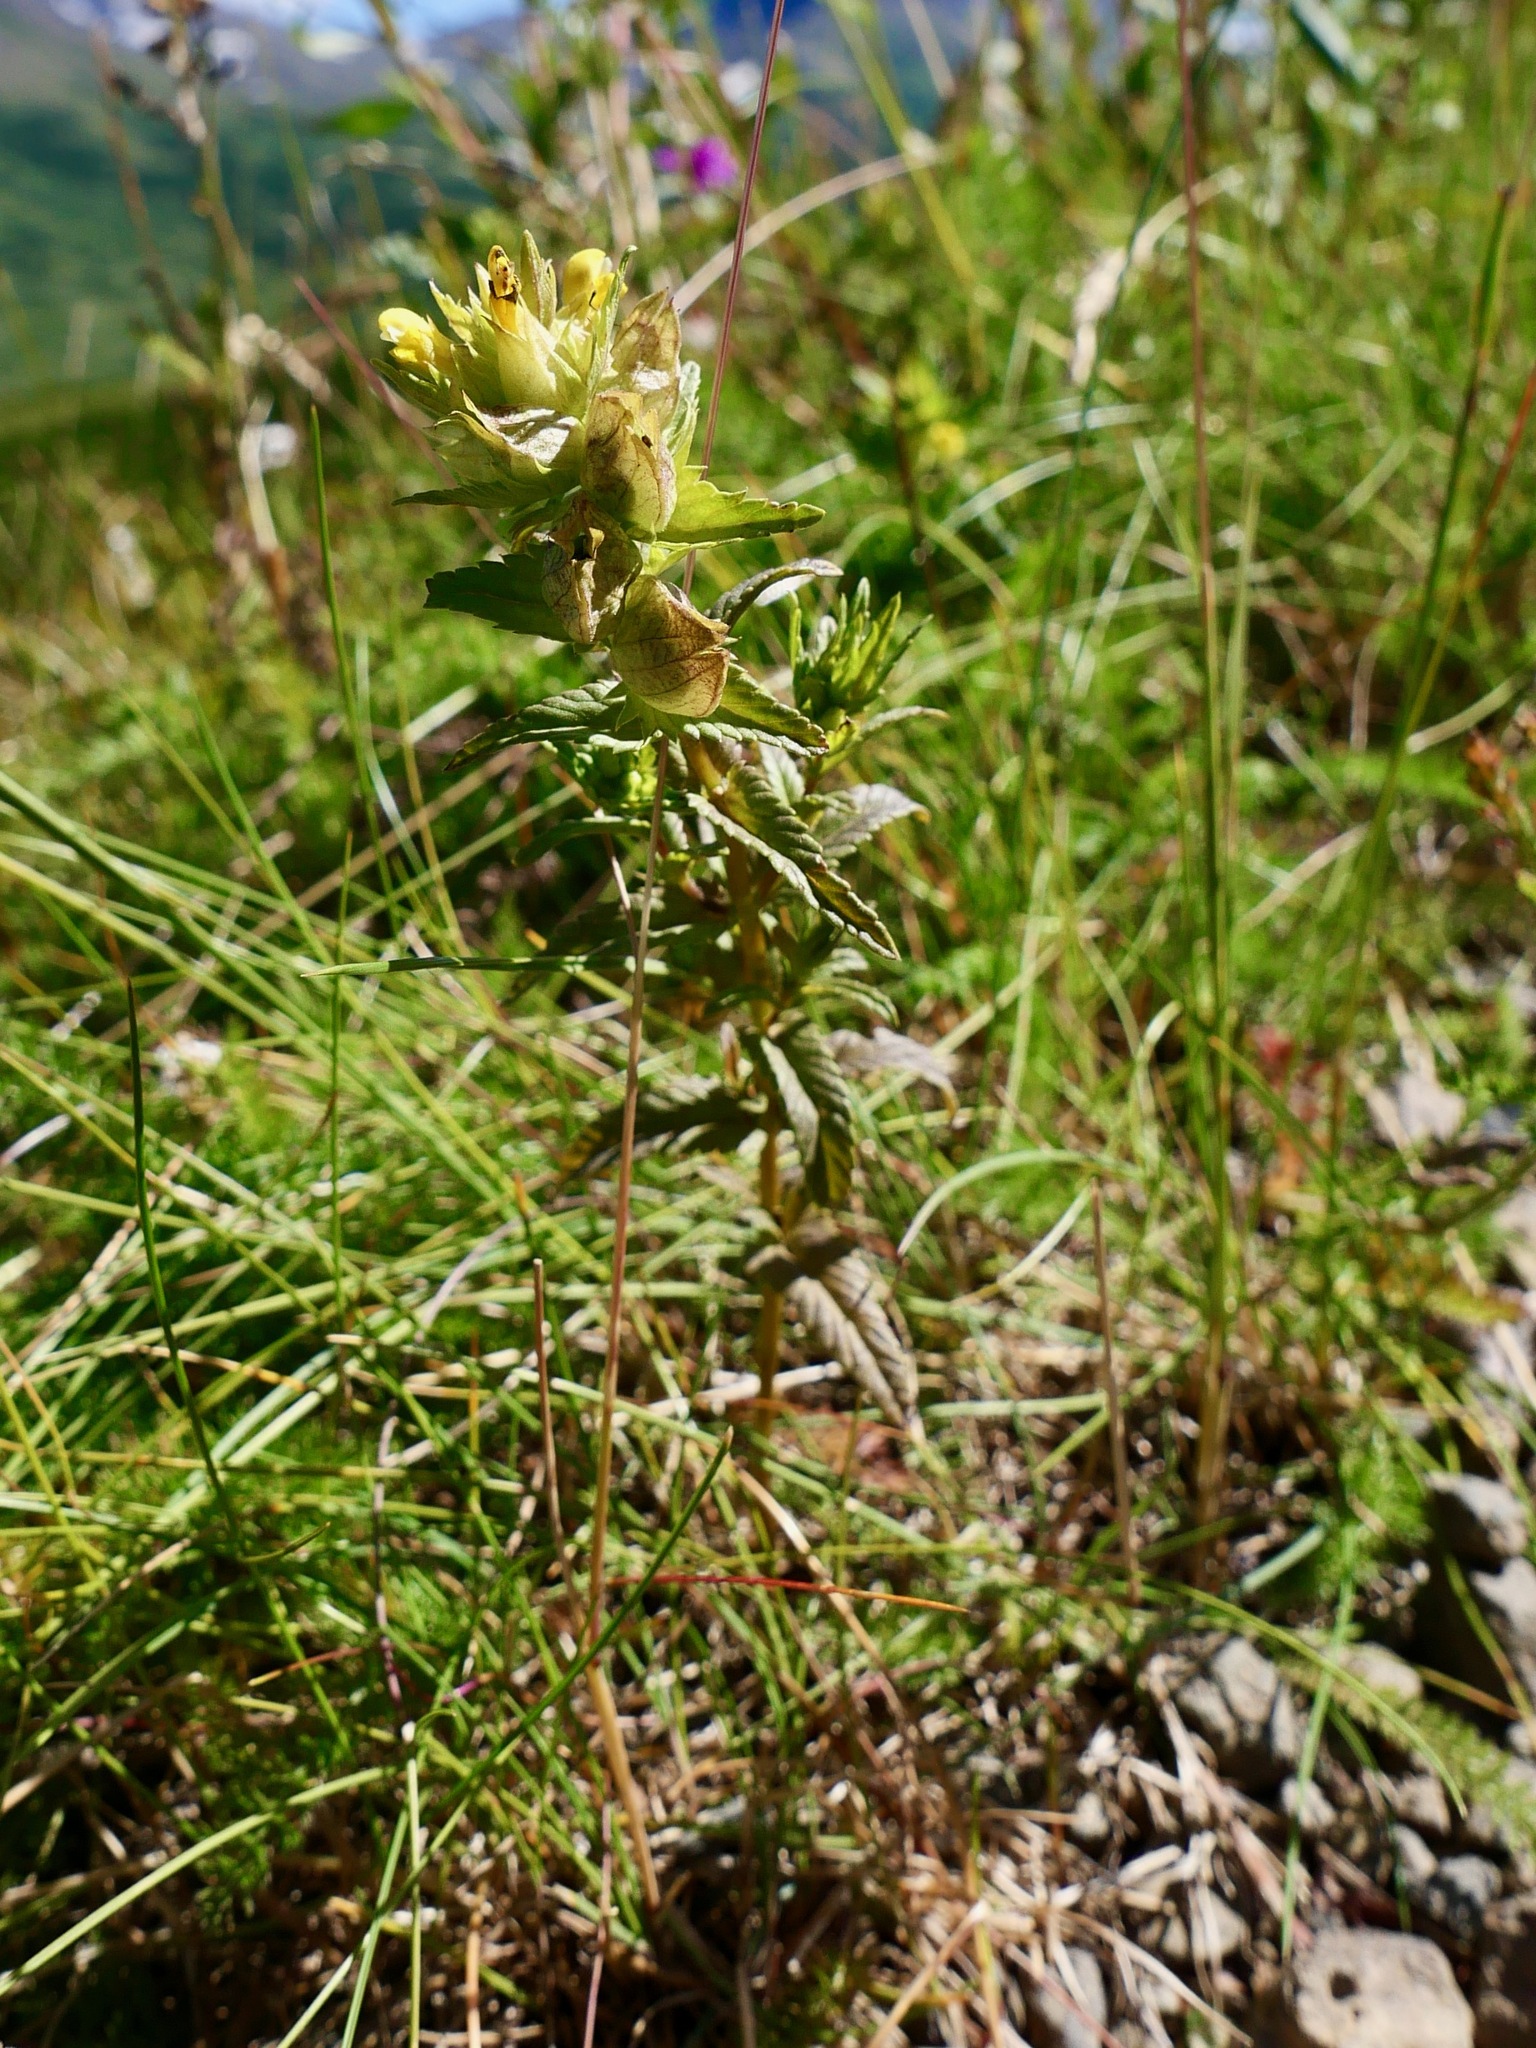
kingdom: Plantae
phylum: Tracheophyta
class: Magnoliopsida
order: Lamiales
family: Orobanchaceae
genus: Rhinanthus
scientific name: Rhinanthus minor
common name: Yellow-rattle
